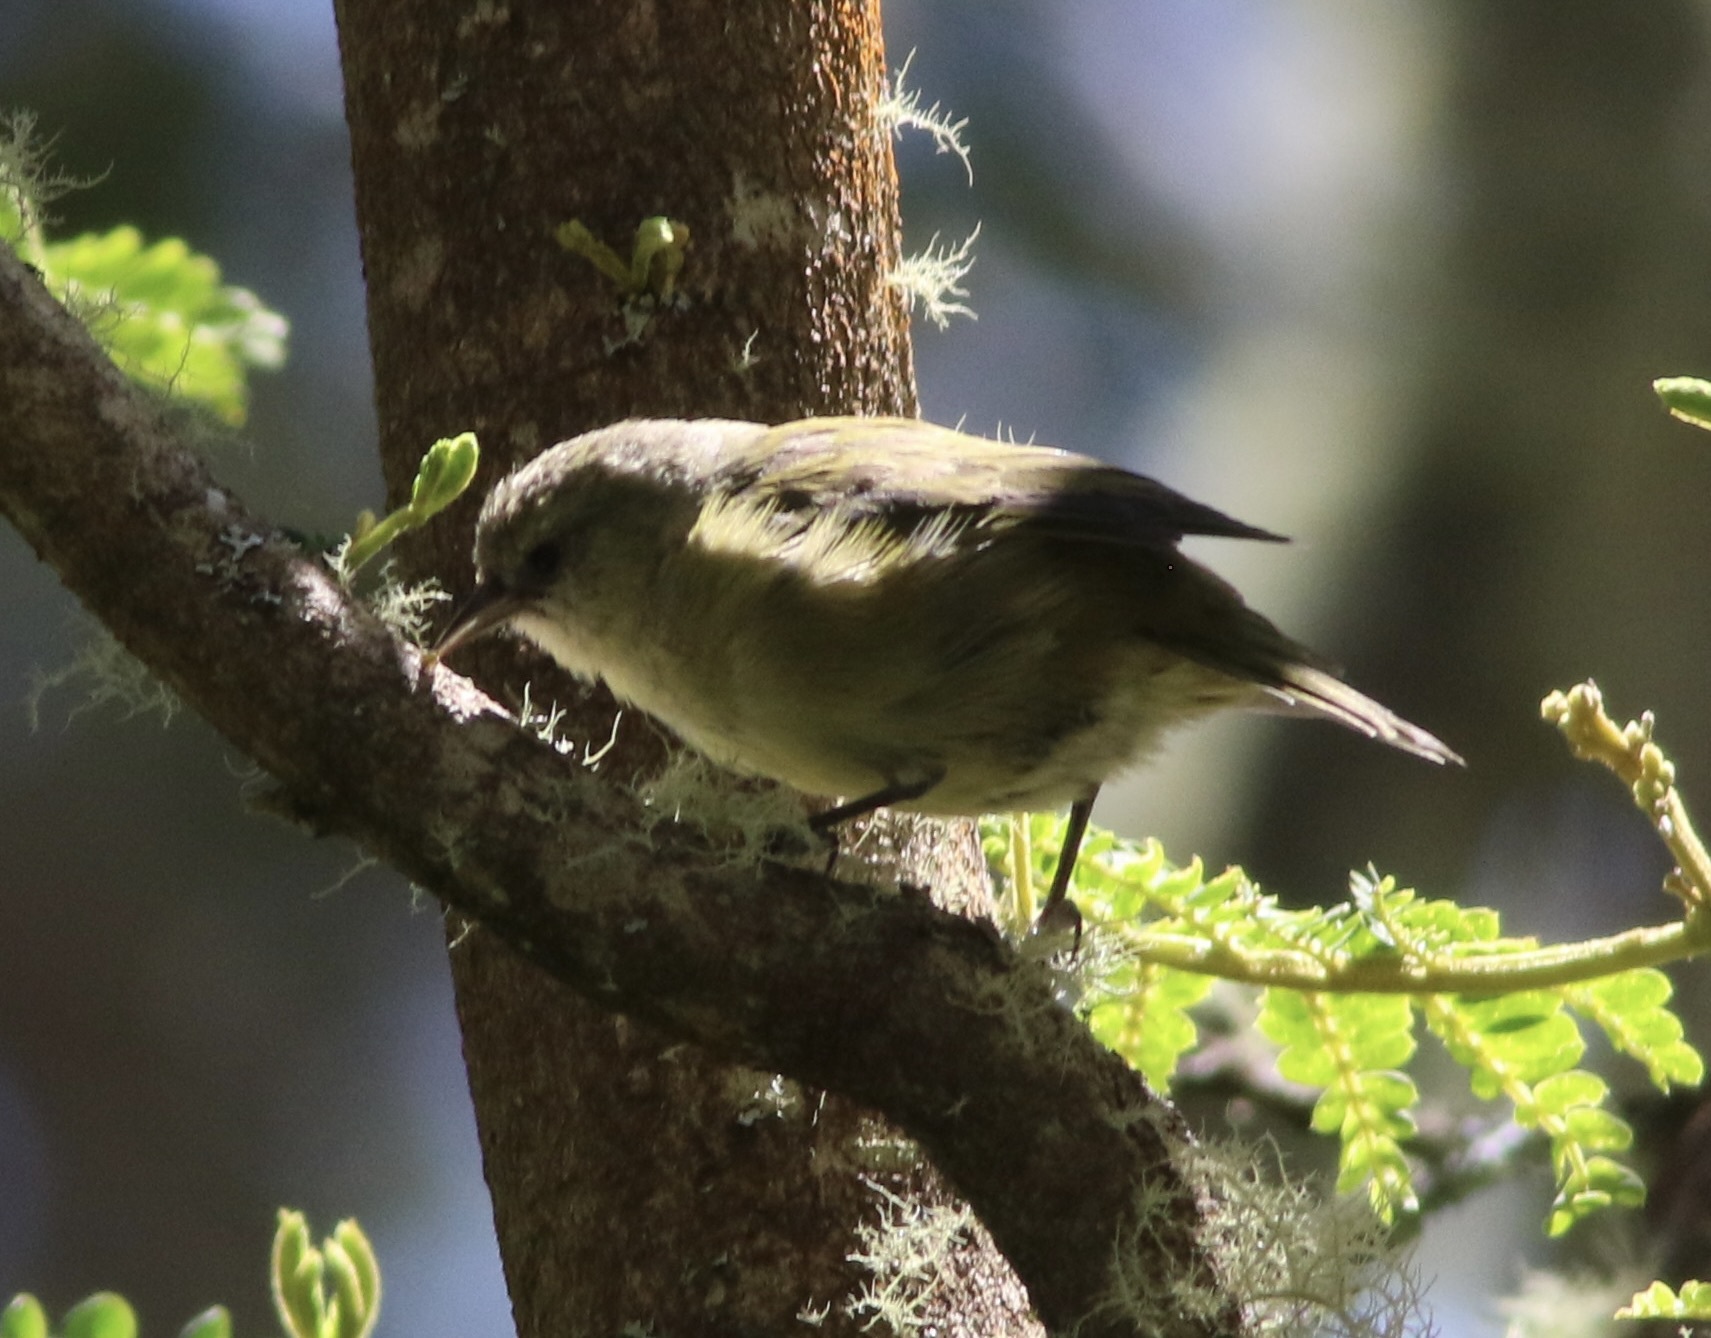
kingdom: Animalia
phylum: Chordata
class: Aves
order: Passeriformes
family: Fringillidae
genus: Loxops
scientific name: Loxops mana
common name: Hawaii creeper
